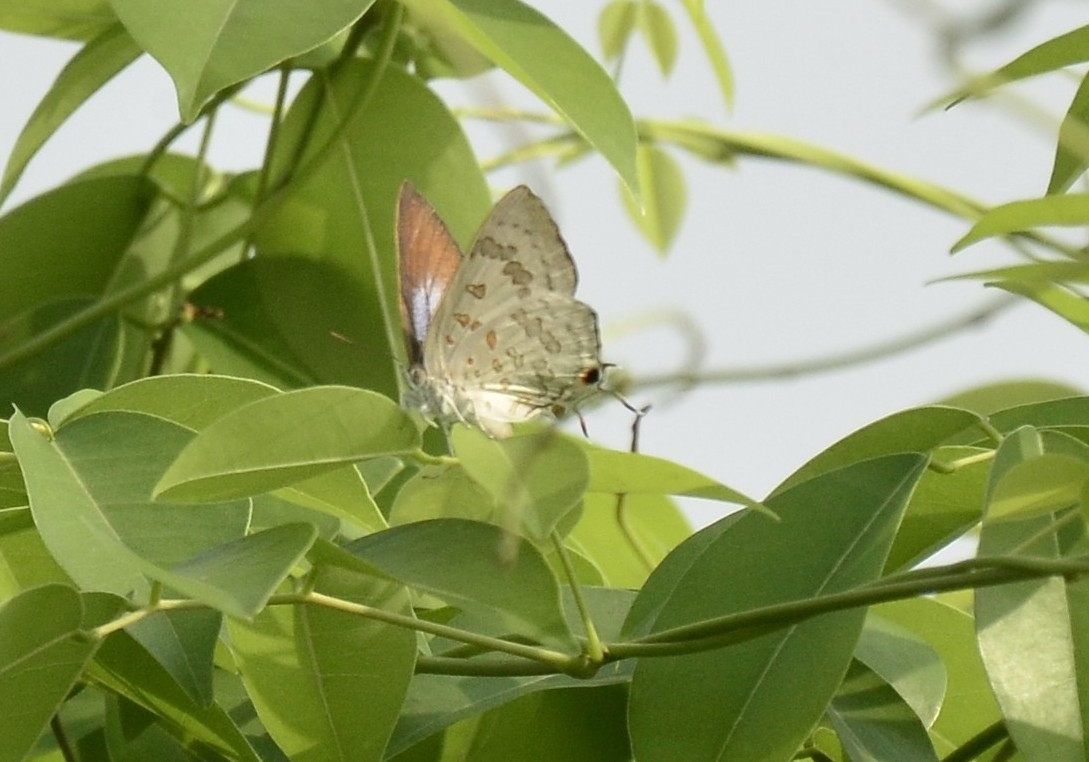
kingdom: Animalia
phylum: Arthropoda
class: Insecta
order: Lepidoptera
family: Lycaenidae
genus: Zesius
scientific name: Zesius chrysomallus
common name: Redspot
